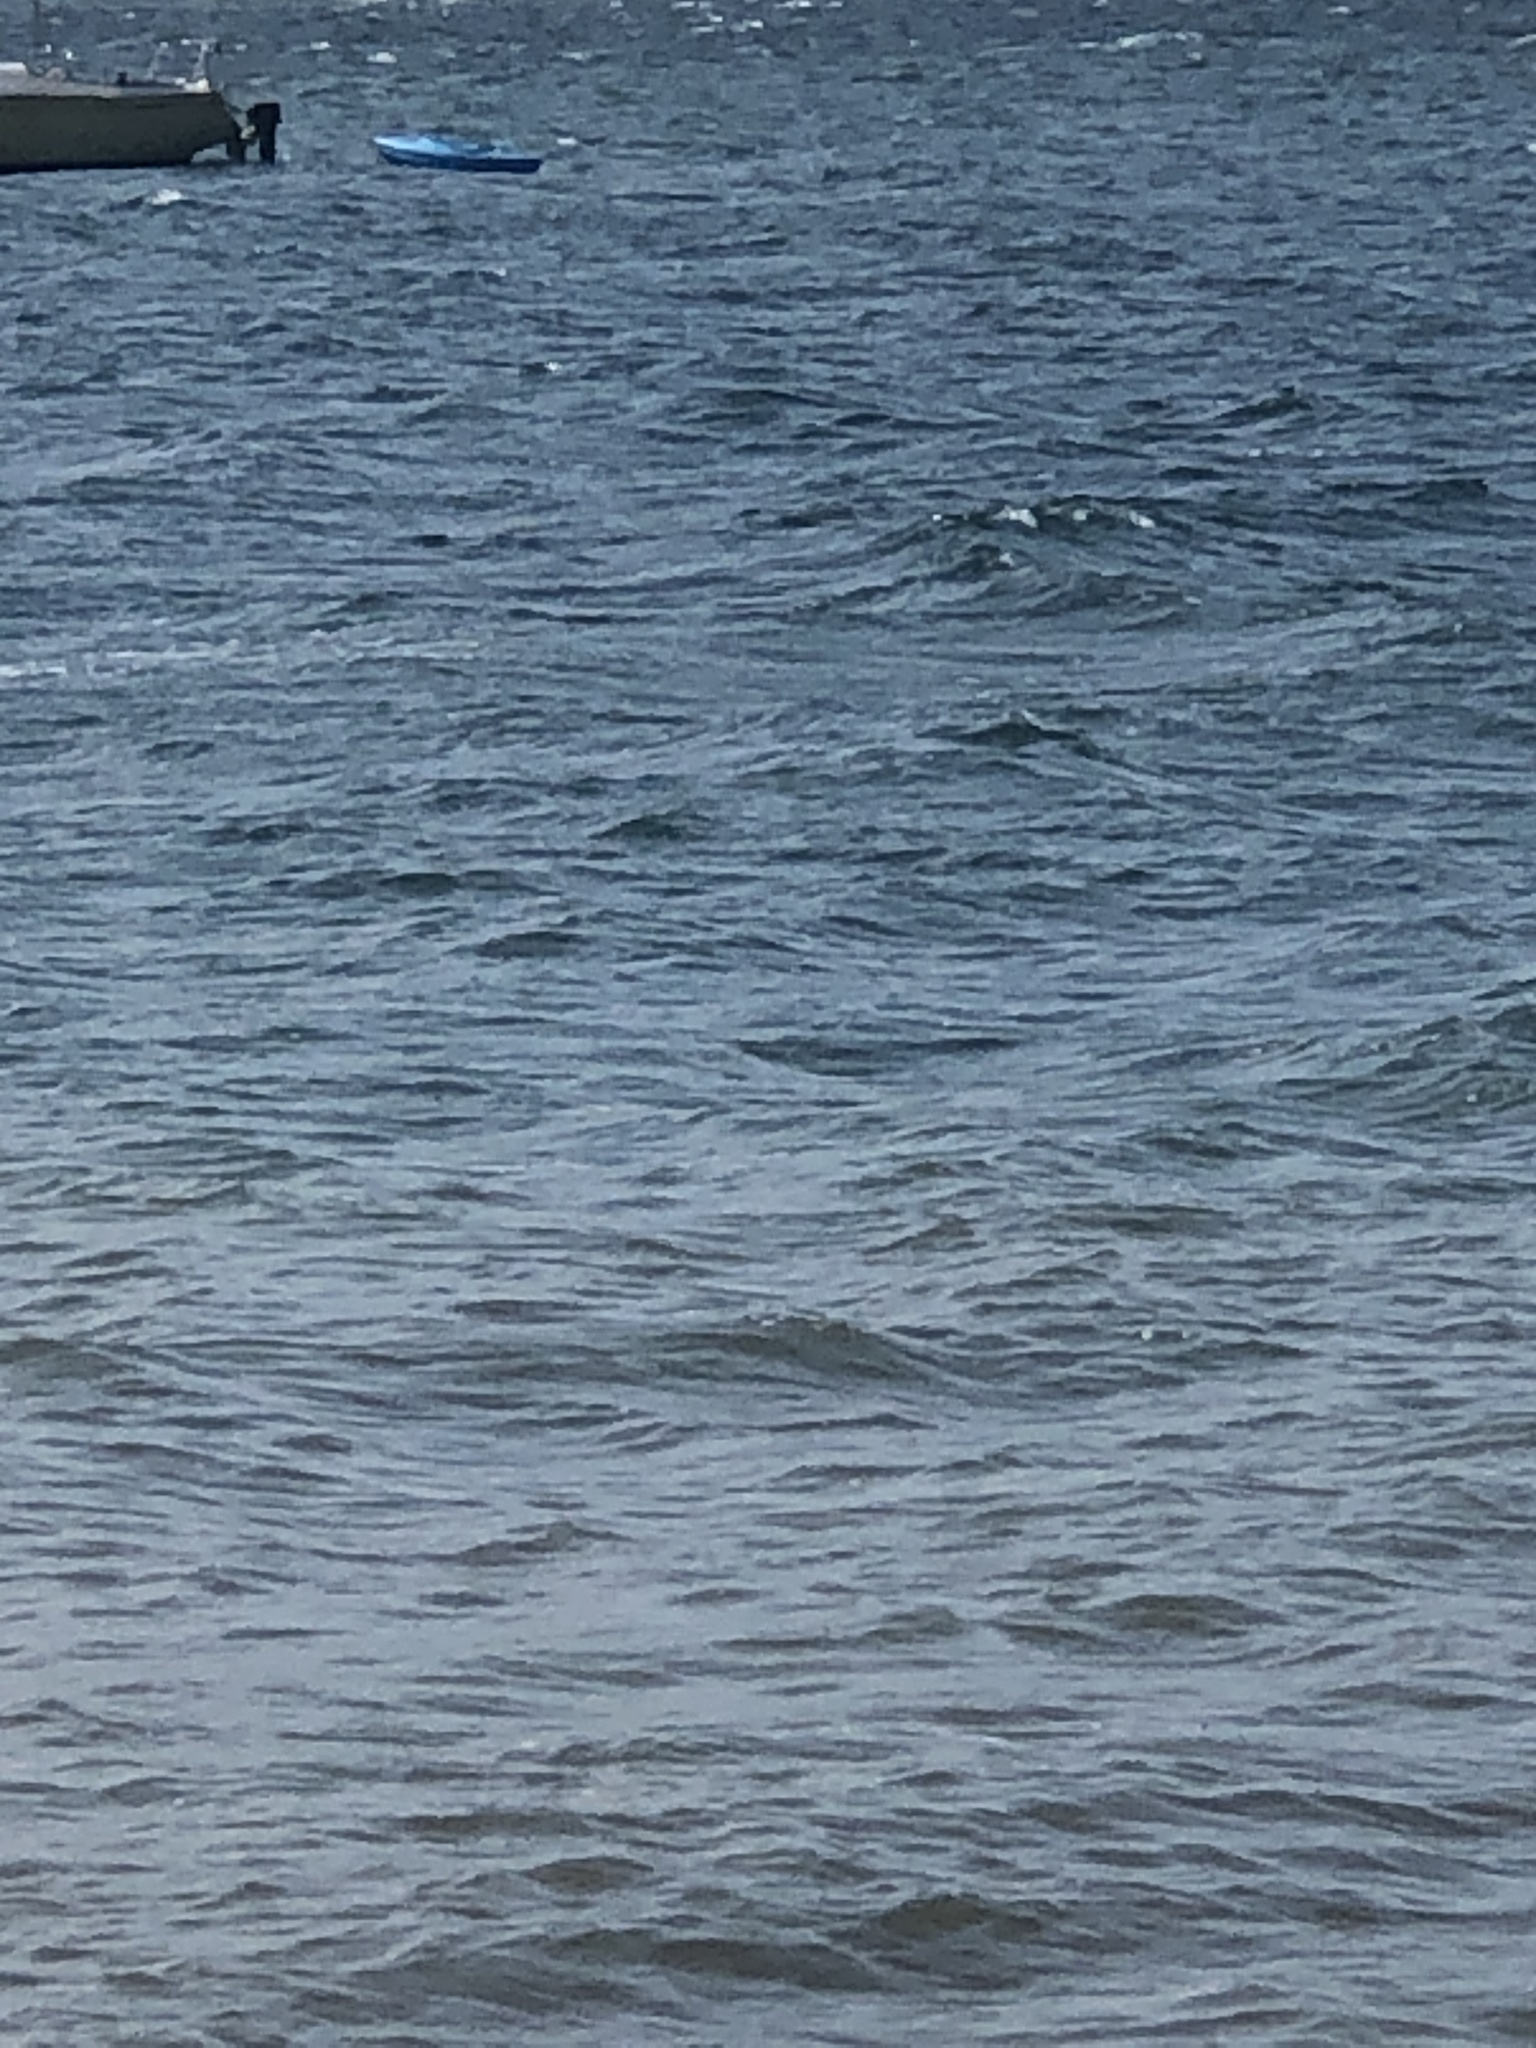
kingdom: Animalia
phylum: Chordata
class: Aves
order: Anseriformes
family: Anatidae
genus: Bucephala
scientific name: Bucephala albeola
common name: Bufflehead
